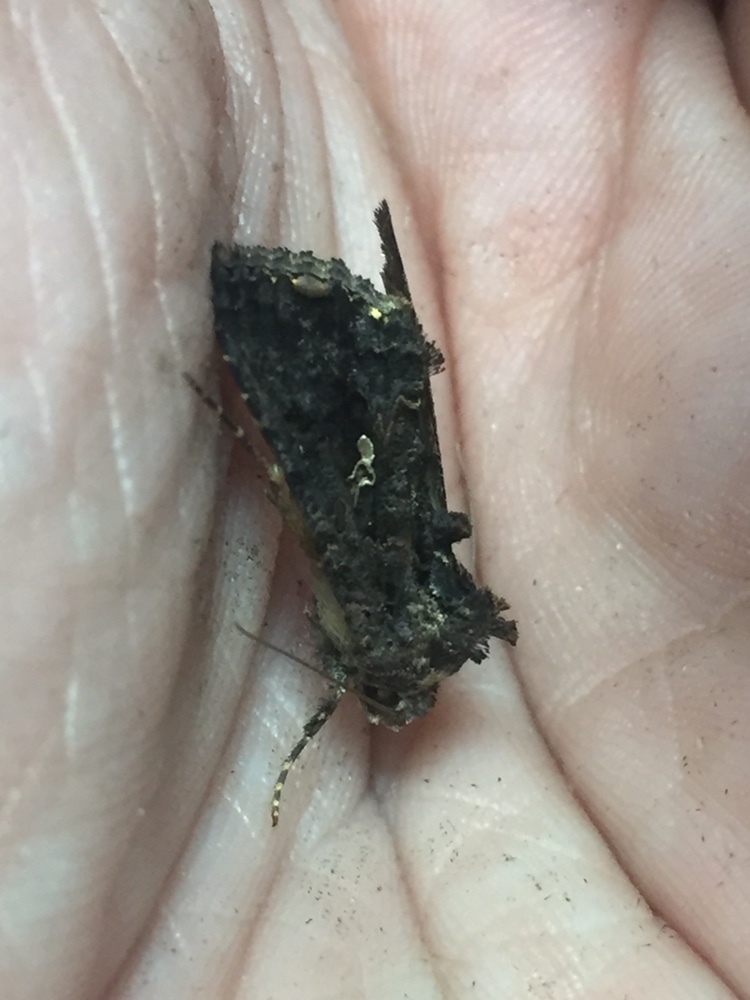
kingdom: Animalia
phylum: Arthropoda
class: Insecta
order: Lepidoptera
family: Noctuidae
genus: Ctenoplusia
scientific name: Ctenoplusia limbirena
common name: Scar bank gem
